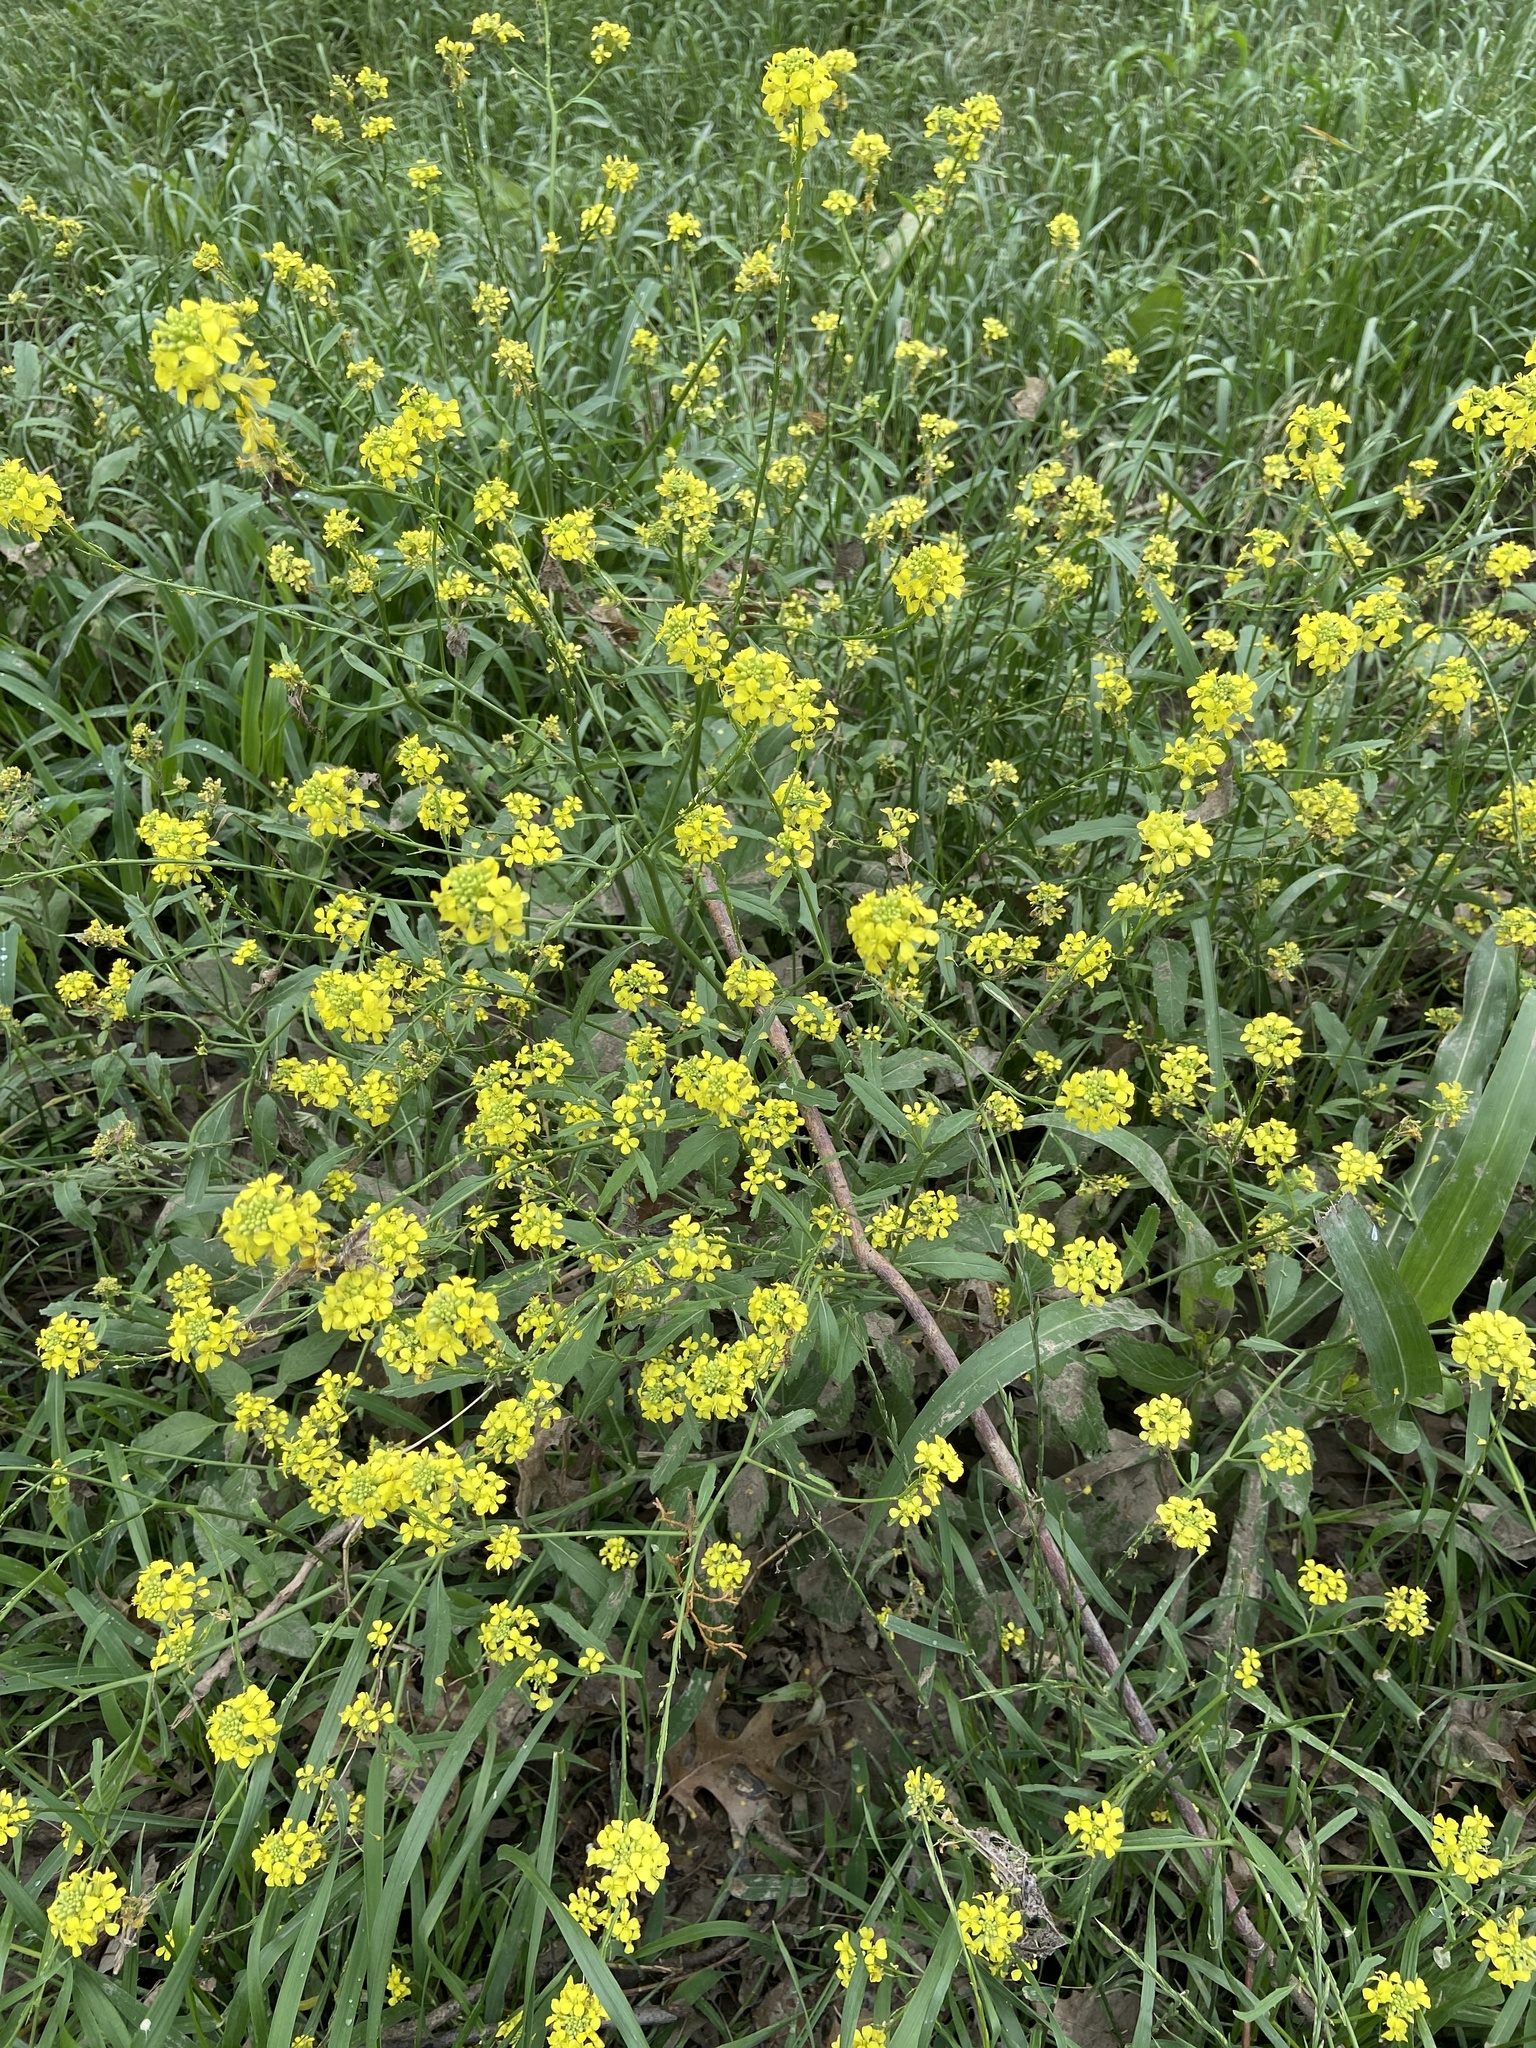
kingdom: Plantae
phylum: Tracheophyta
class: Magnoliopsida
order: Brassicales
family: Brassicaceae
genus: Rapistrum
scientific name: Rapistrum rugosum
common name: Annual bastardcabbage
